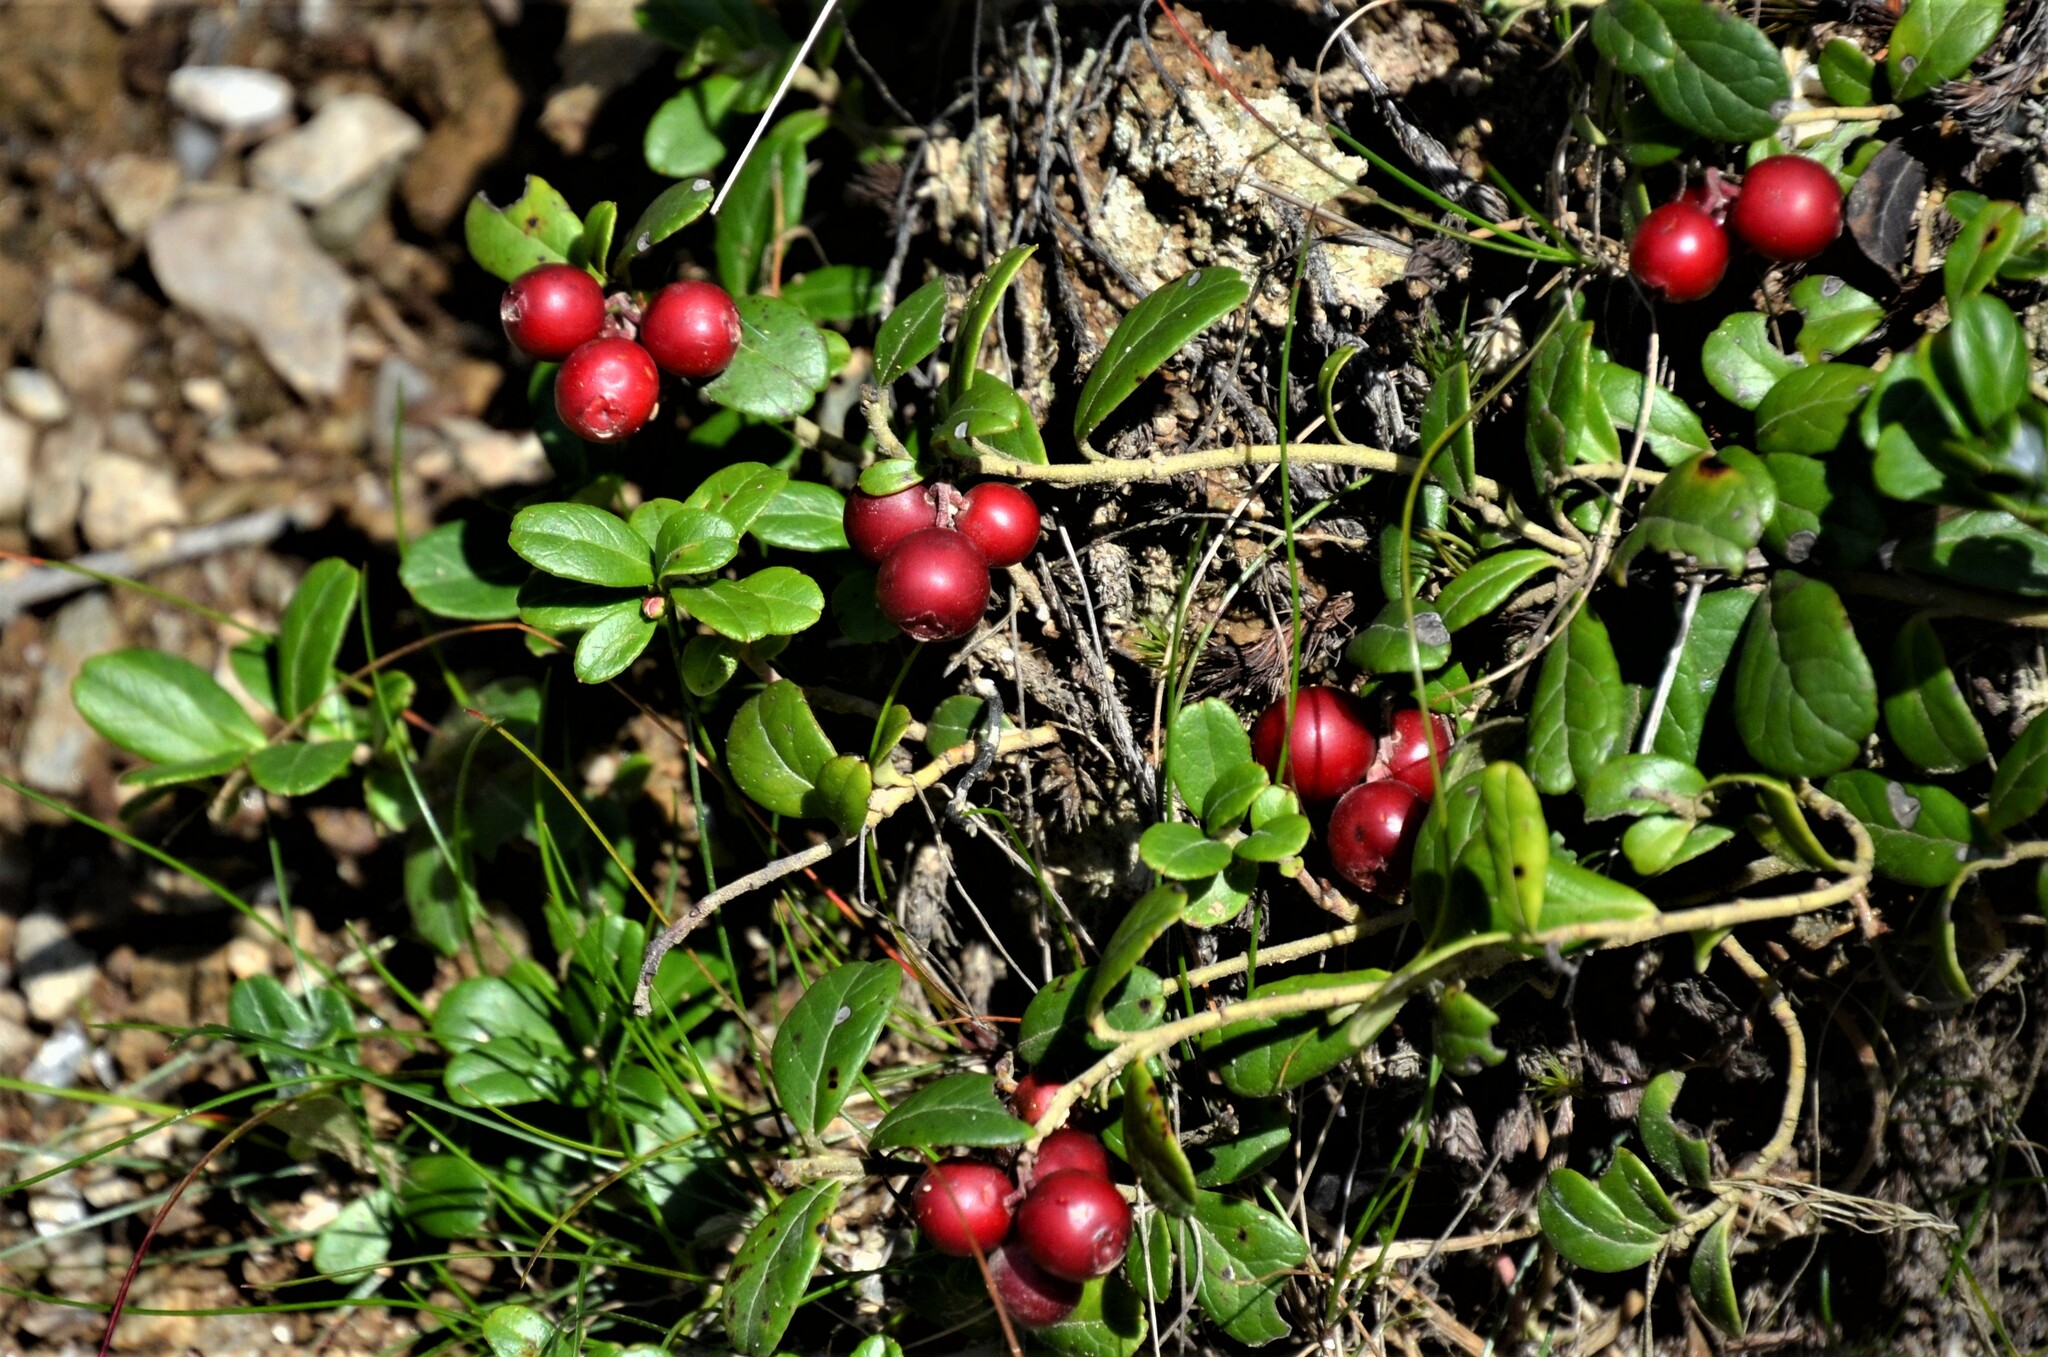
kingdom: Plantae
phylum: Tracheophyta
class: Magnoliopsida
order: Ericales
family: Ericaceae
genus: Vaccinium
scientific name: Vaccinium vitis-idaea
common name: Cowberry
